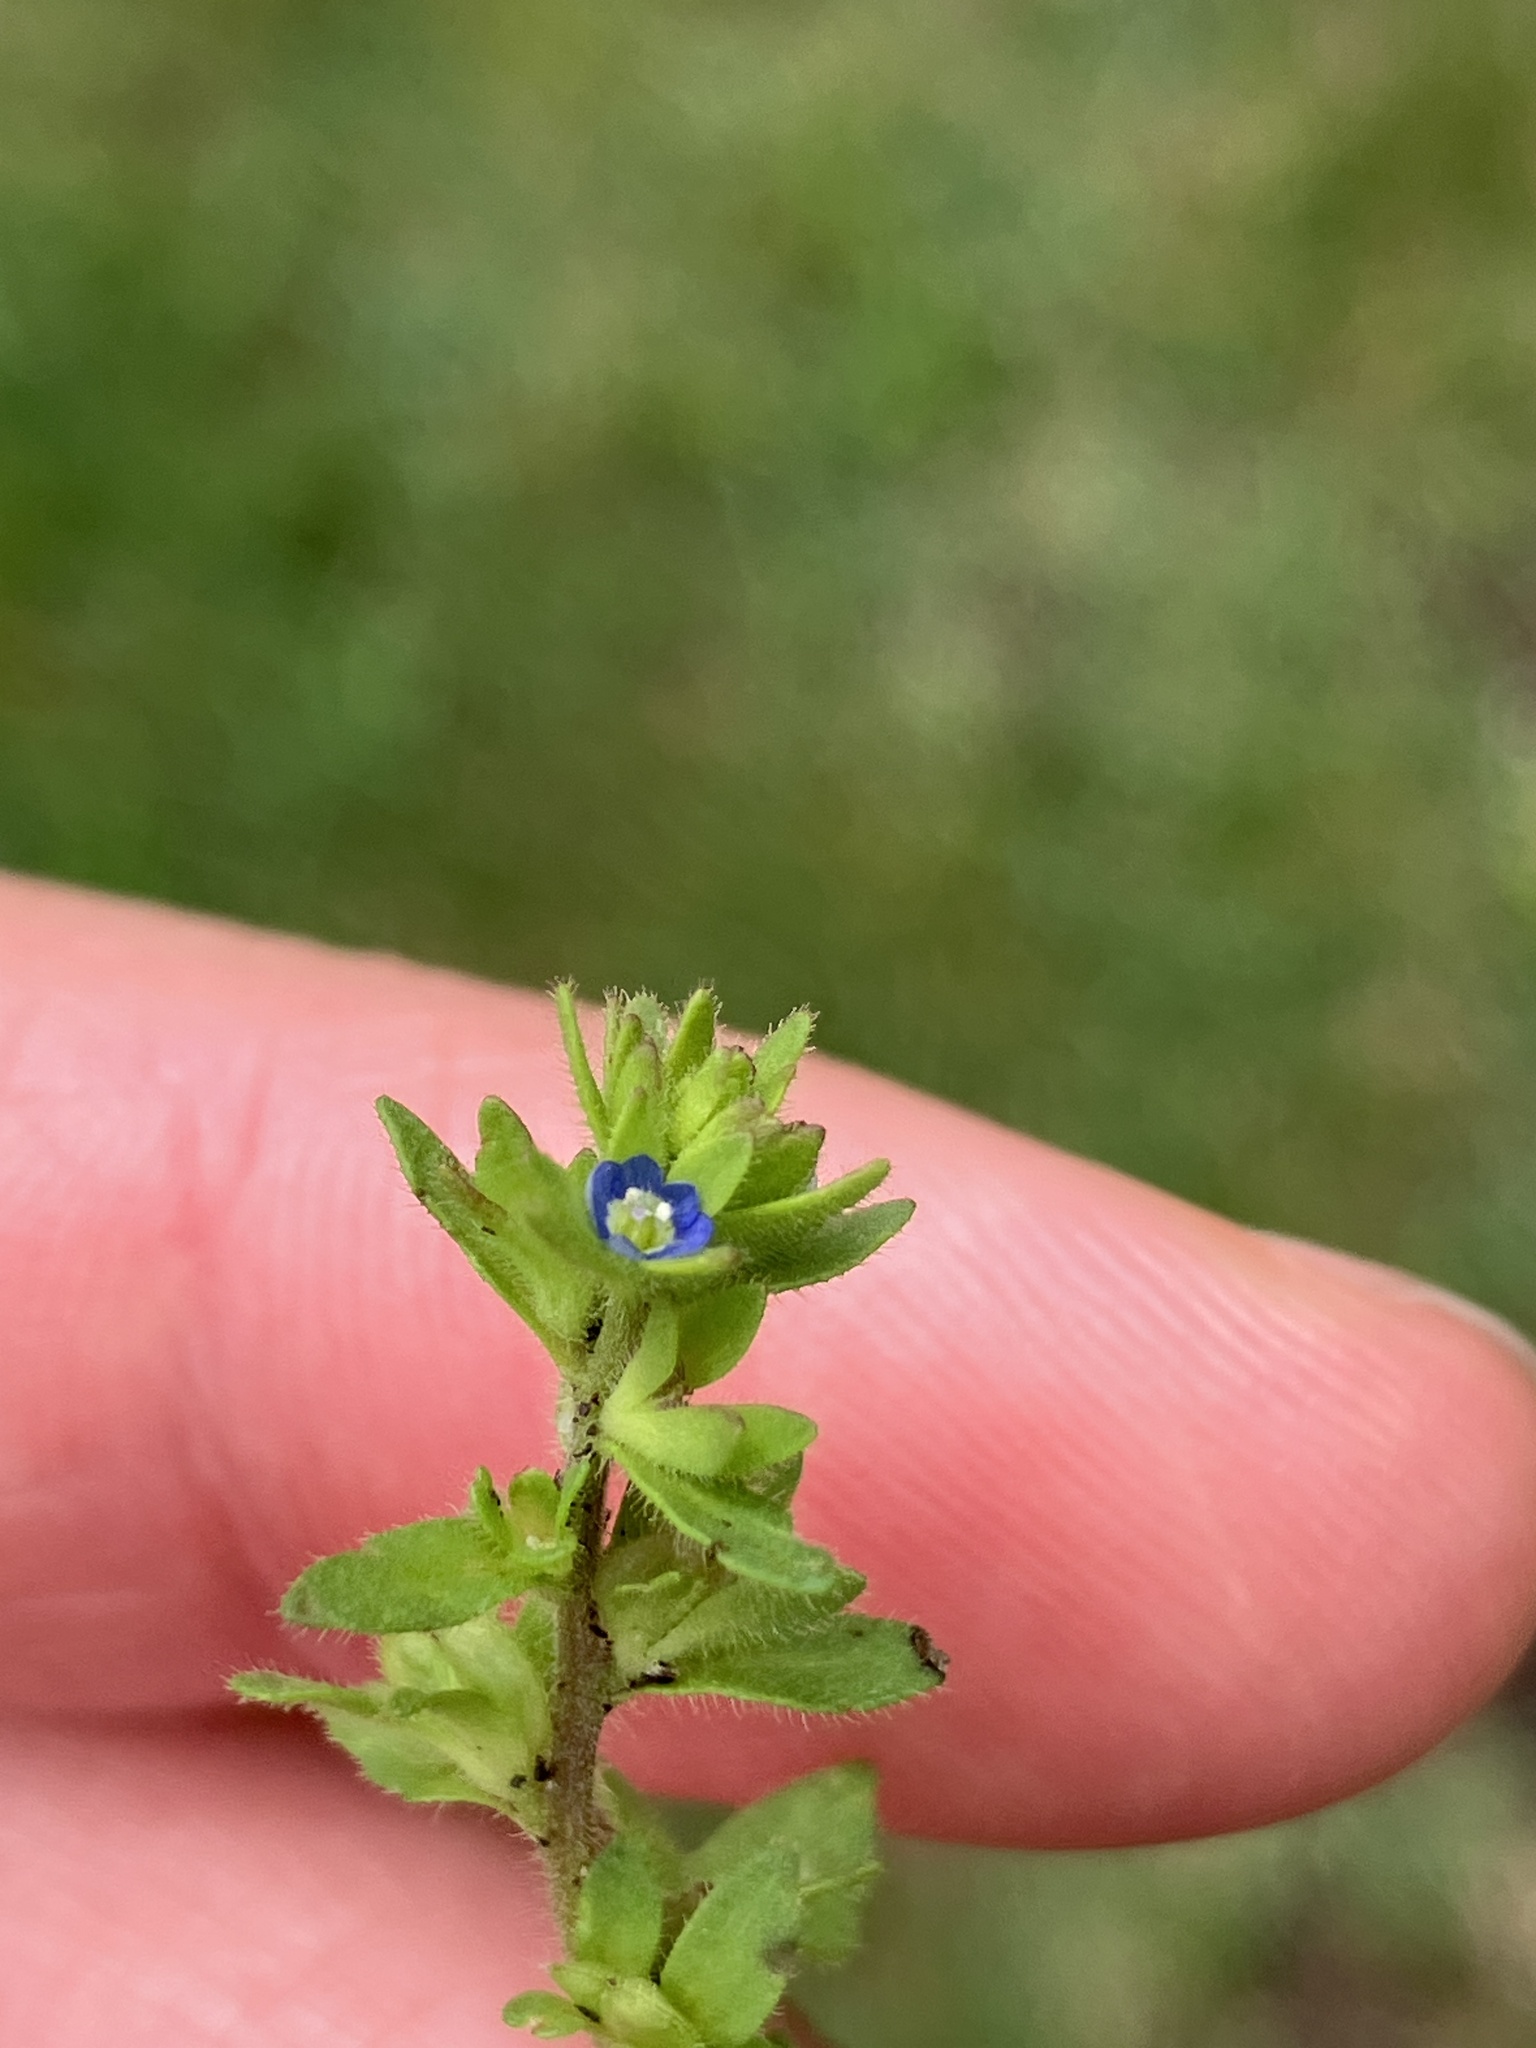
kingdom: Plantae
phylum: Tracheophyta
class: Magnoliopsida
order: Lamiales
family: Plantaginaceae
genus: Veronica
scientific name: Veronica arvensis
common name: Corn speedwell
